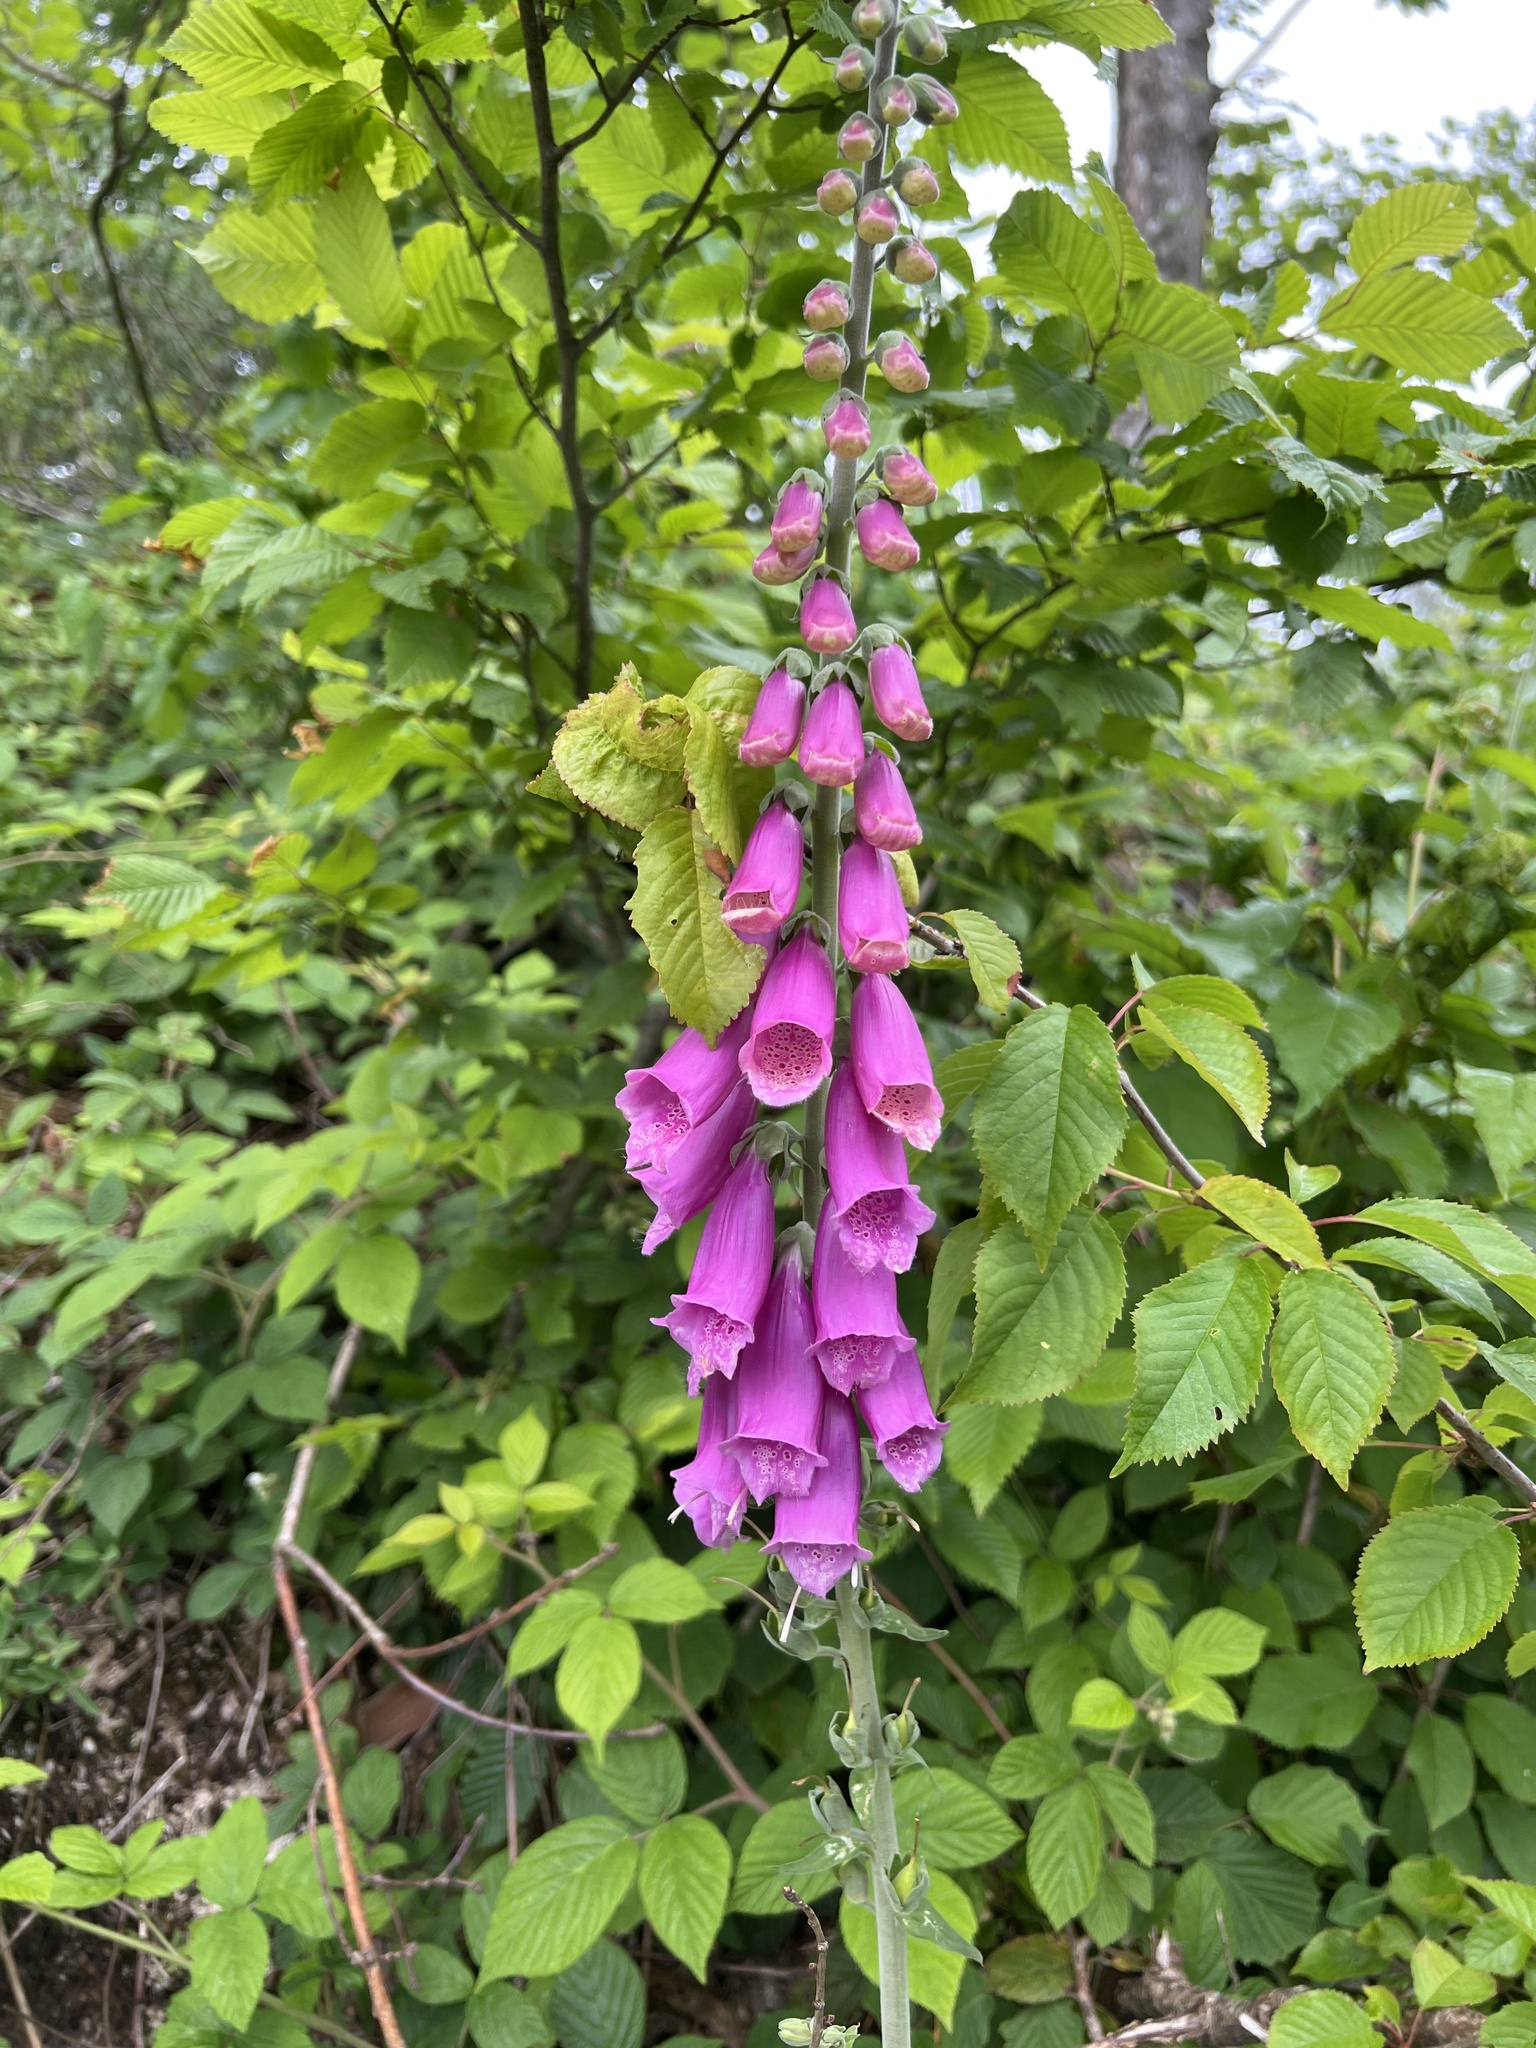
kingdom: Plantae
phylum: Tracheophyta
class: Magnoliopsida
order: Lamiales
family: Plantaginaceae
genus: Digitalis
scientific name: Digitalis purpurea
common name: Foxglove
